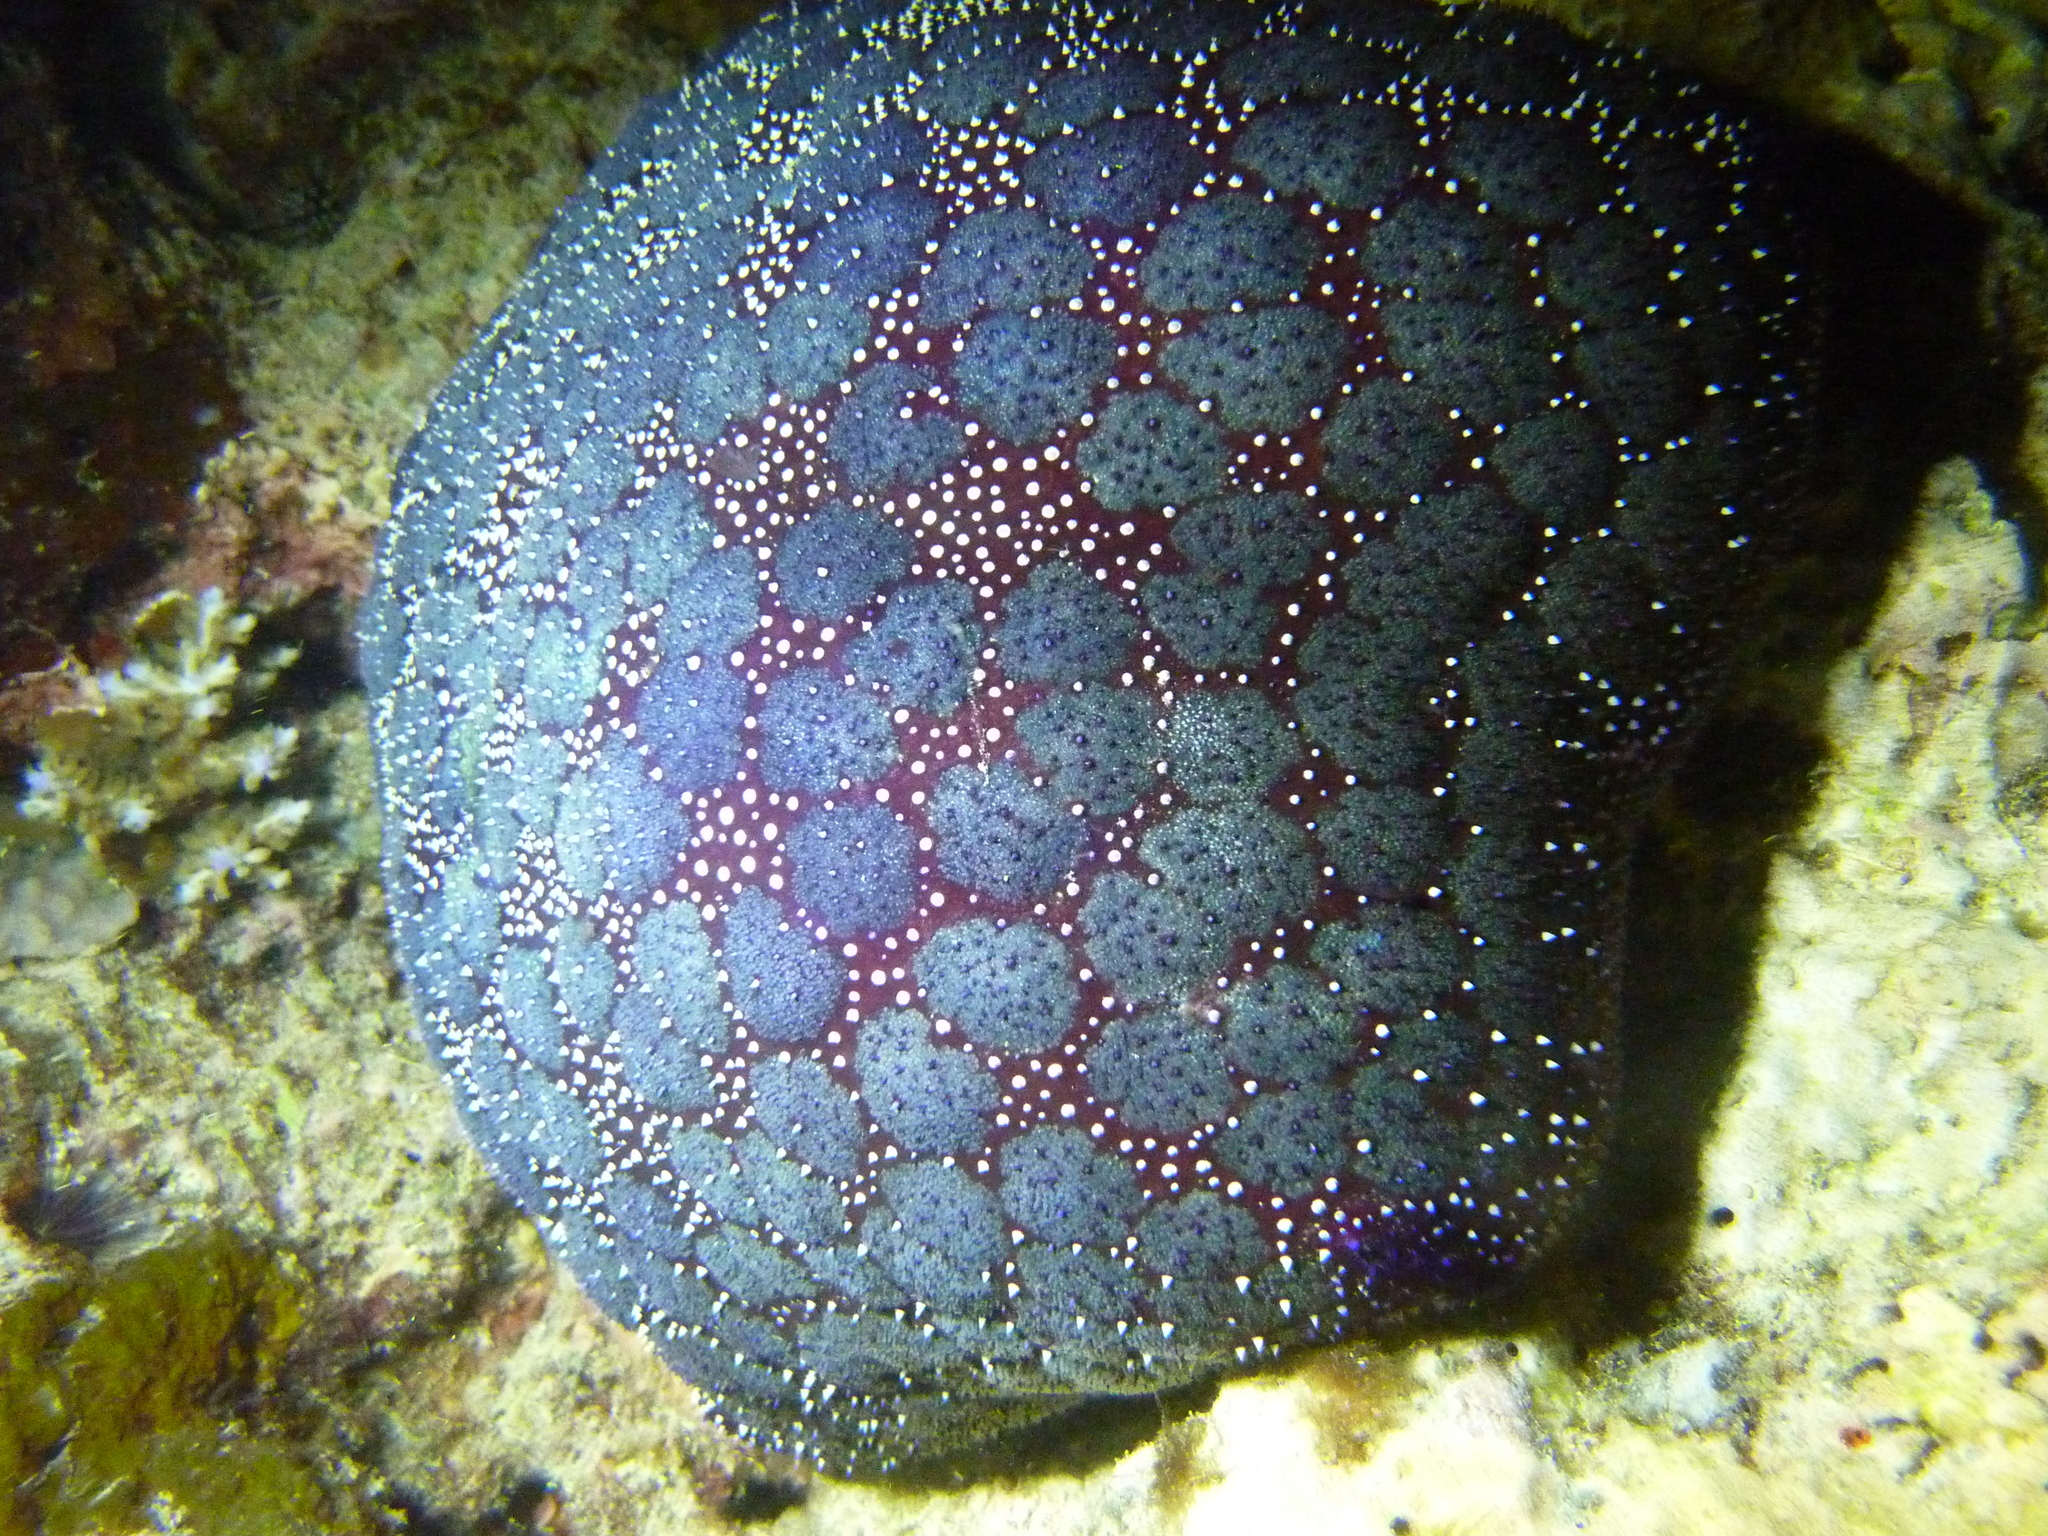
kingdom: Animalia
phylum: Echinodermata
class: Asteroidea
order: Valvatida
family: Oreasteridae
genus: Culcita
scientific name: Culcita novaeguineae
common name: Cushion star
